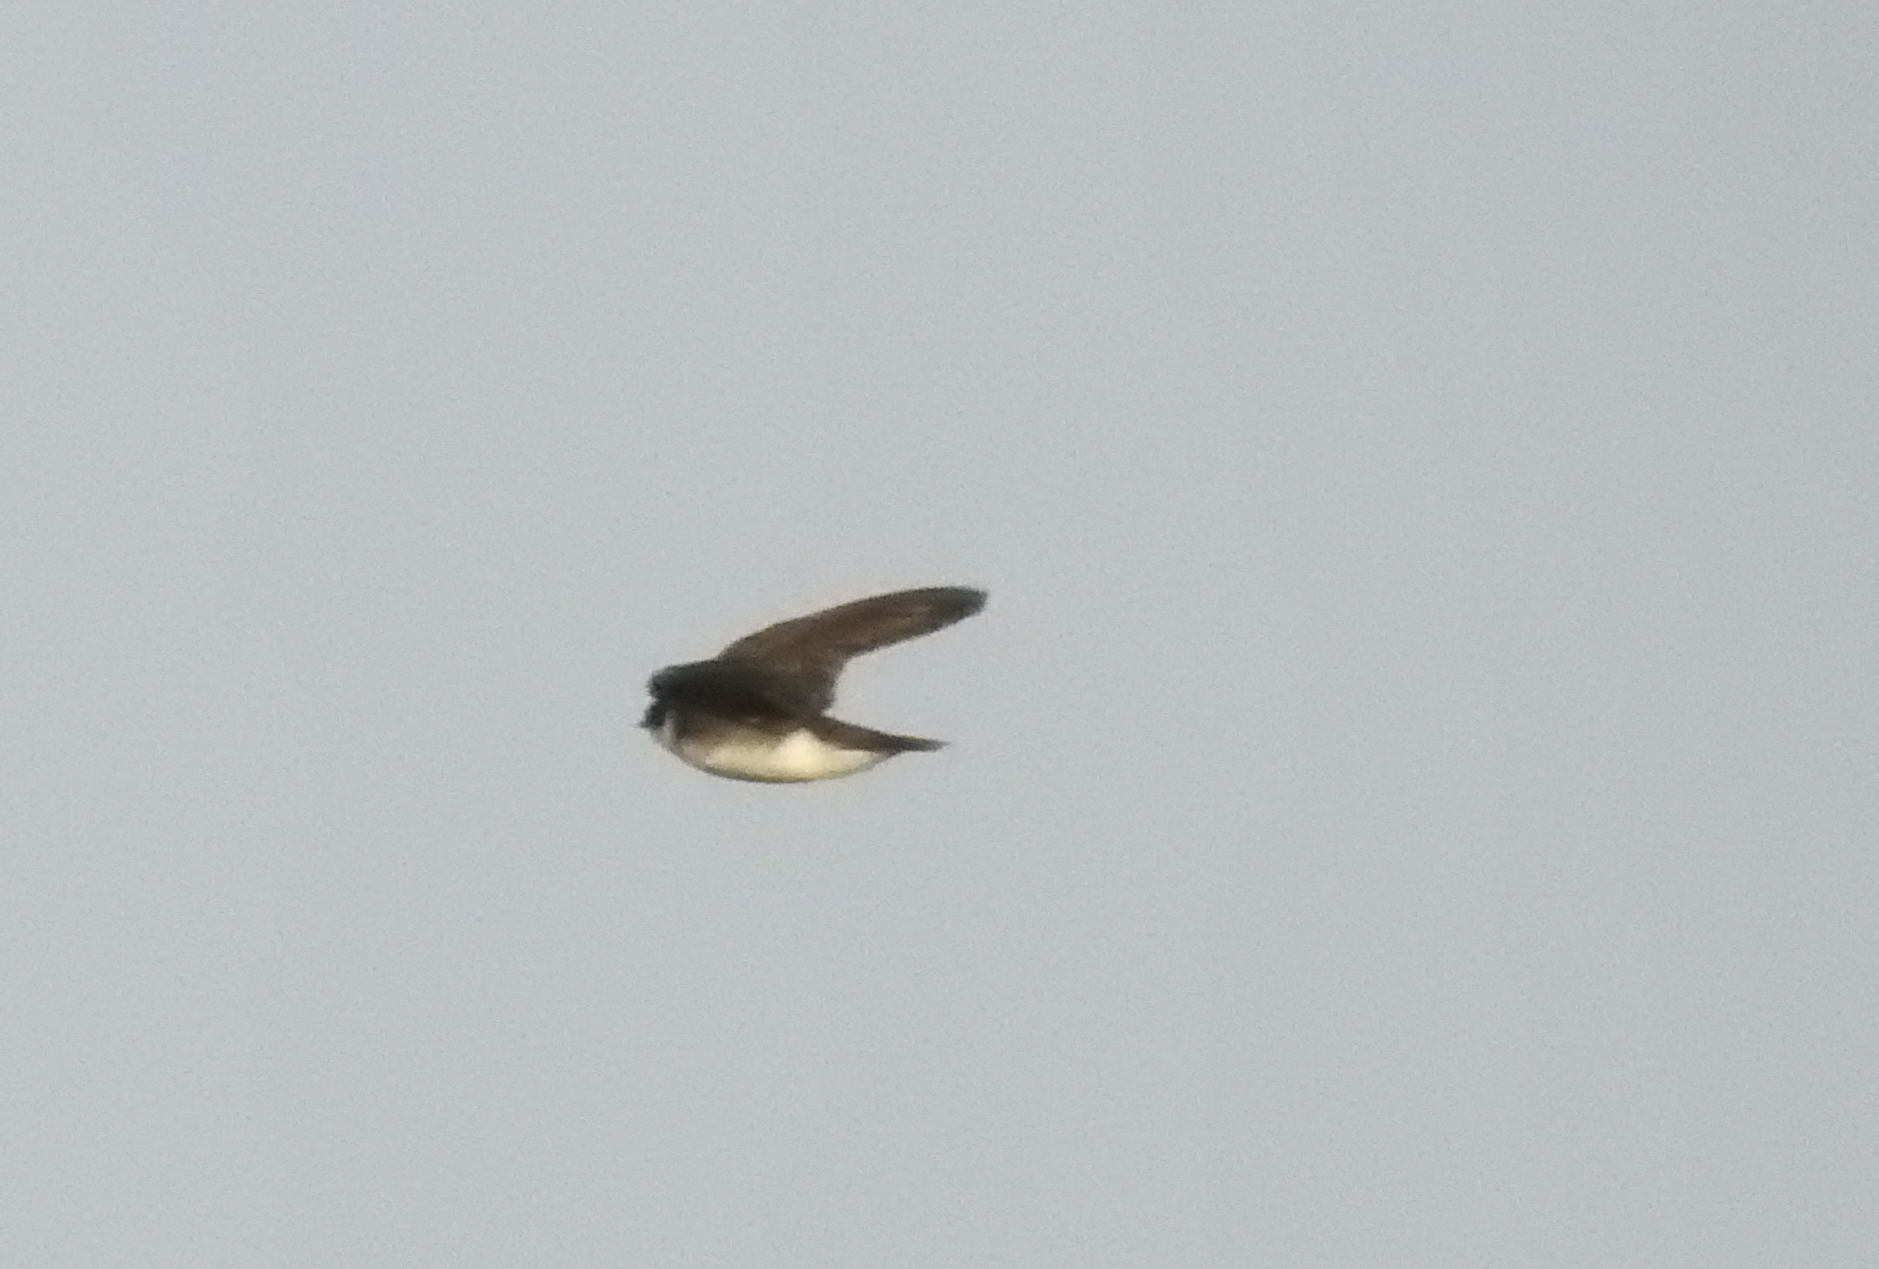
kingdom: Animalia
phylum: Chordata
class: Aves
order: Passeriformes
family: Hirundinidae
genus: Tachycineta
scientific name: Tachycineta bicolor
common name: Tree swallow
